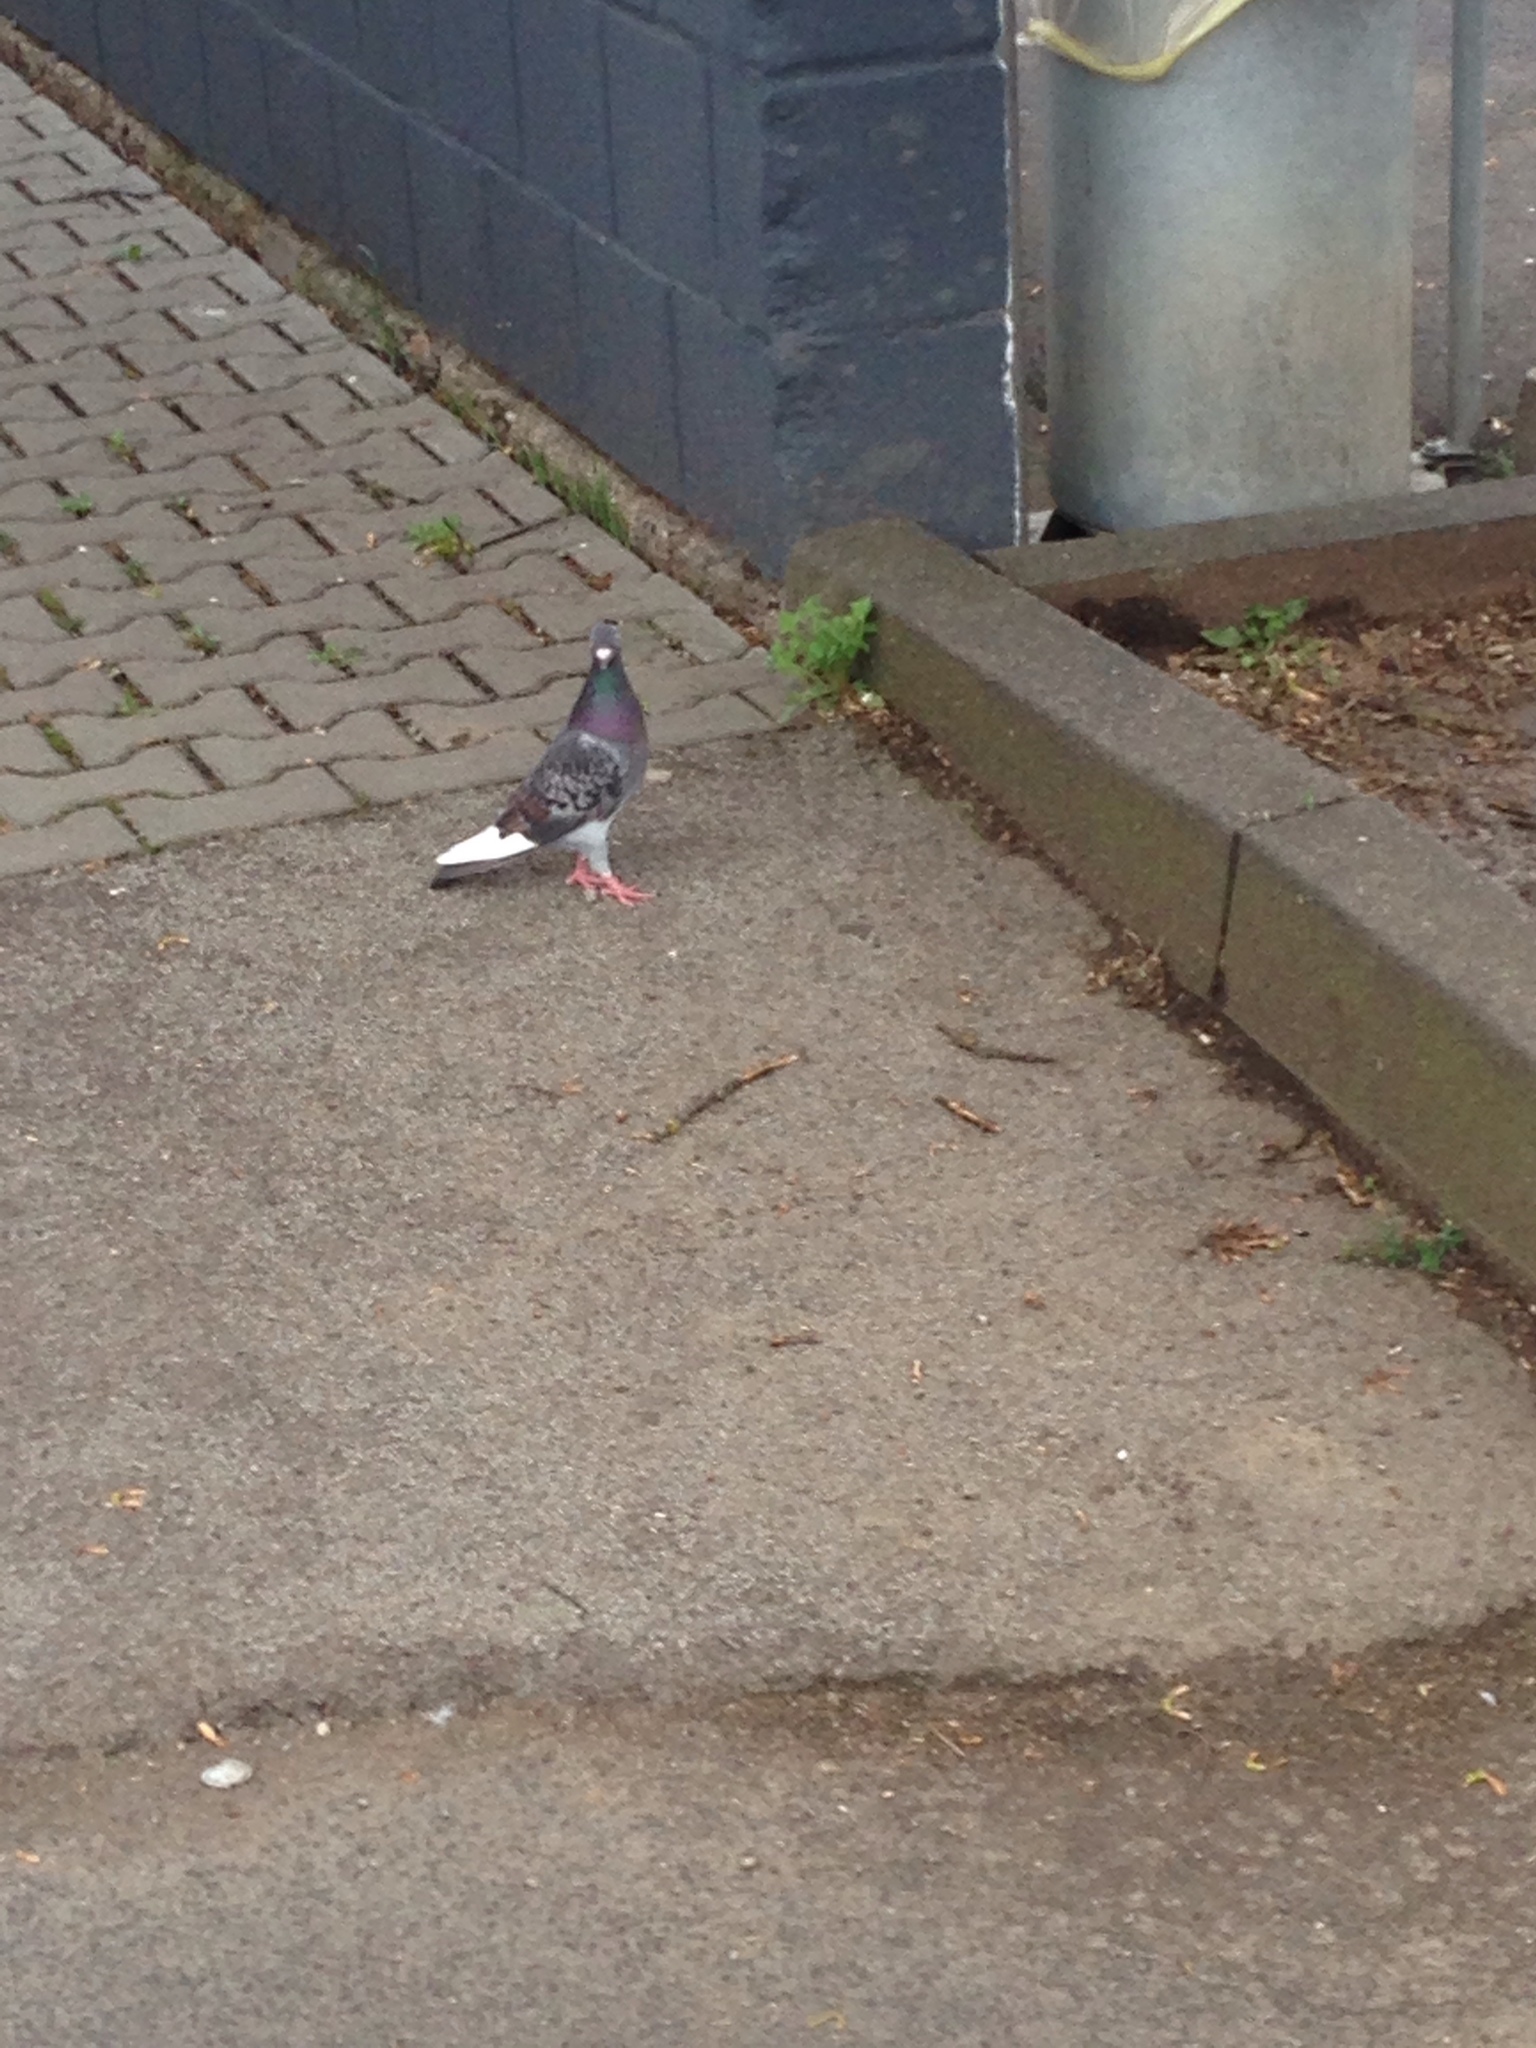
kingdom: Animalia
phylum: Chordata
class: Aves
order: Columbiformes
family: Columbidae
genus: Columba
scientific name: Columba livia
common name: Rock pigeon
